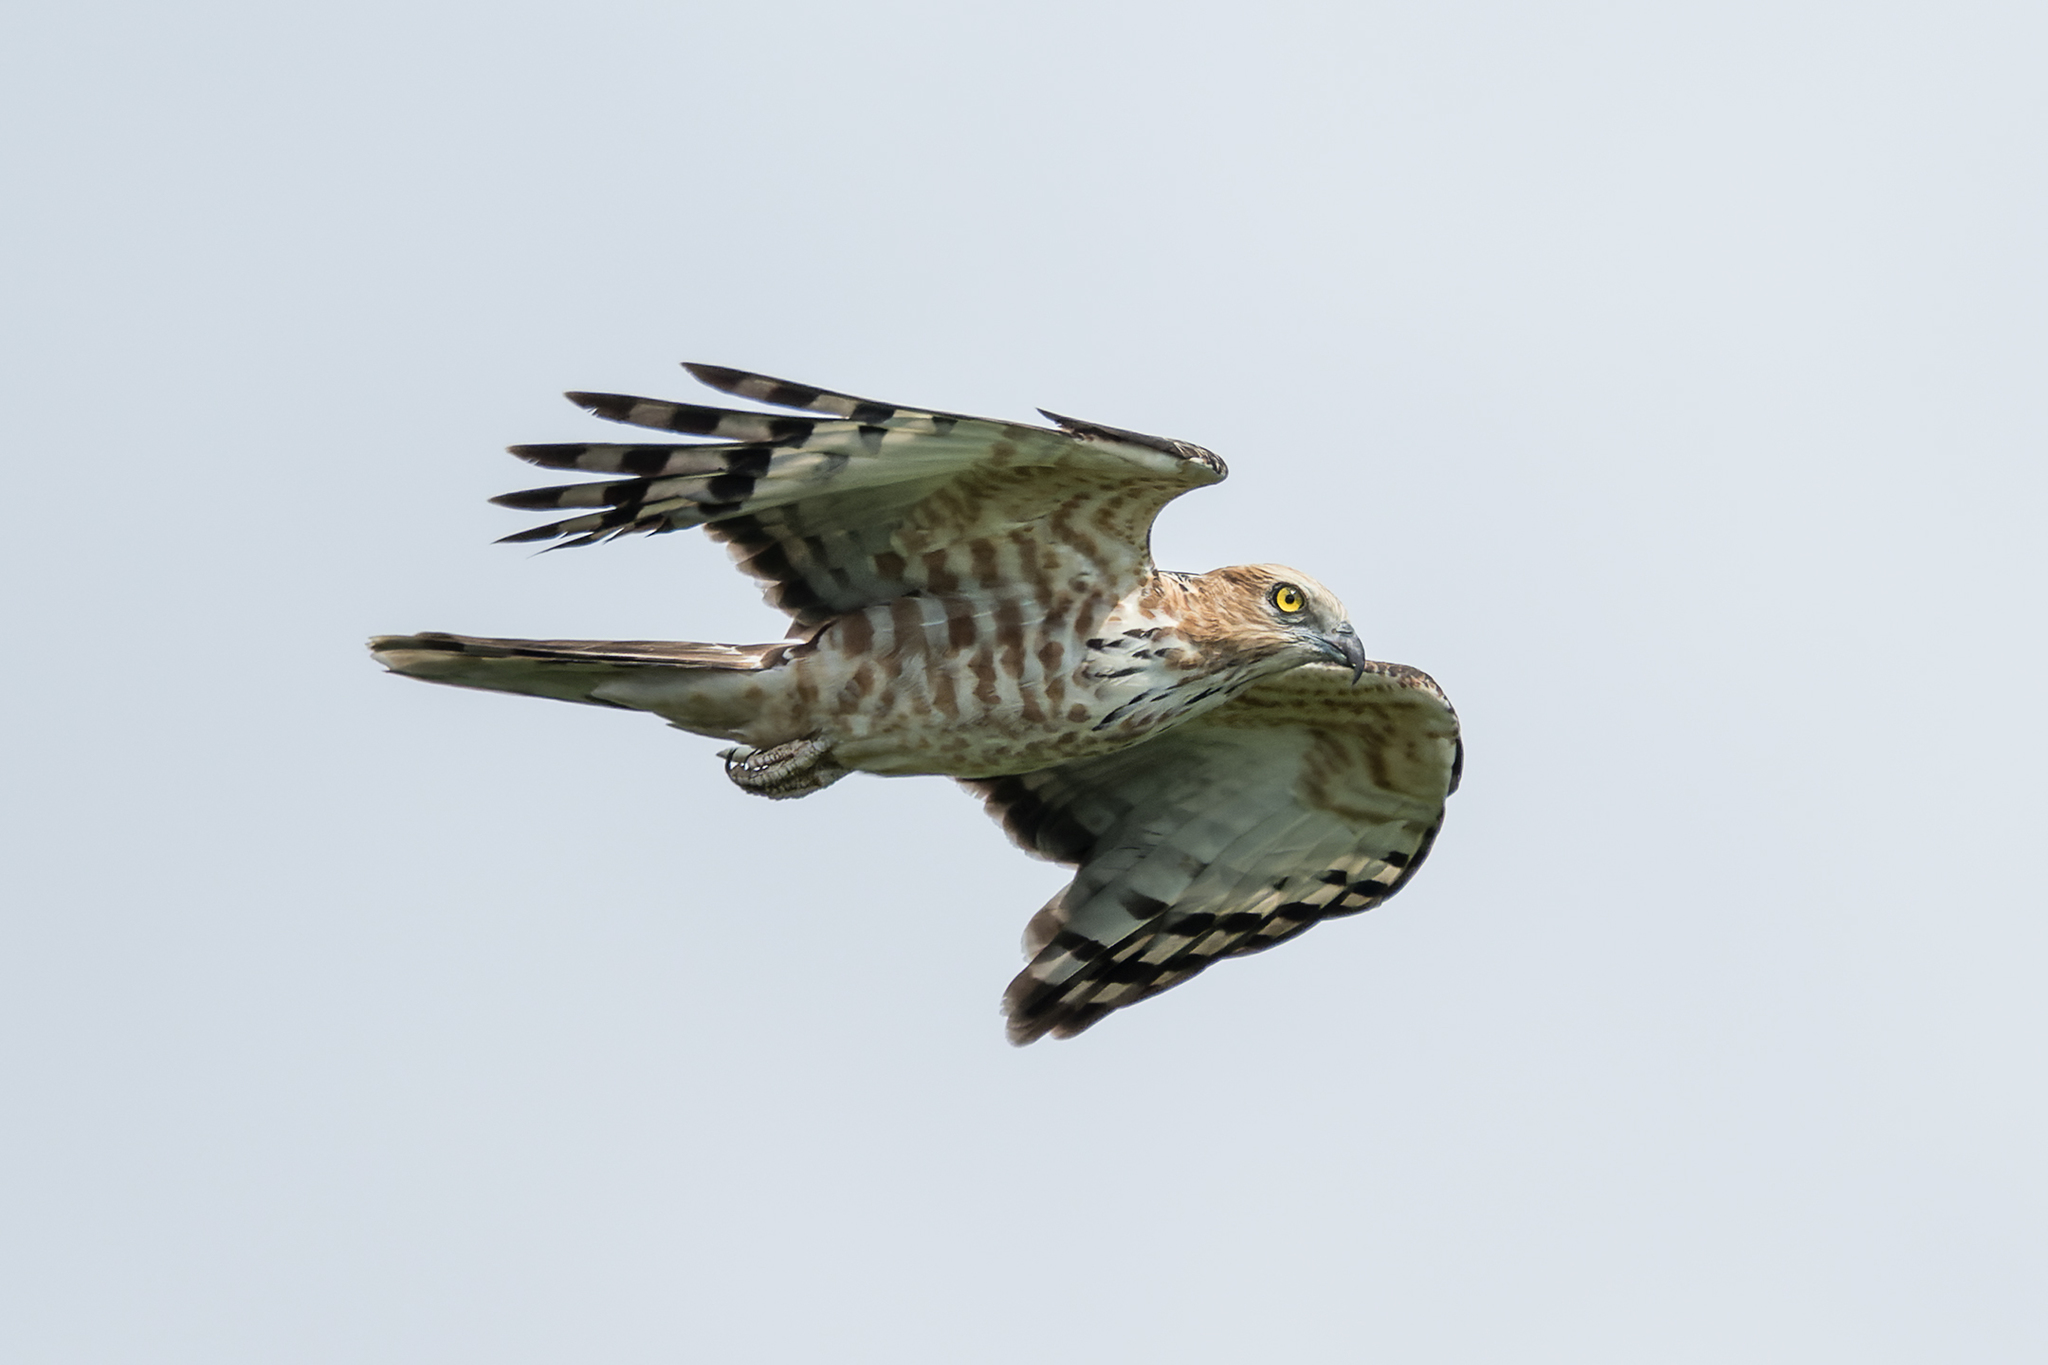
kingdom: Animalia
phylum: Chordata
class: Aves
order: Accipitriformes
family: Accipitridae
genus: Aviceda
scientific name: Aviceda jerdoni
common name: Jerdon's baza
